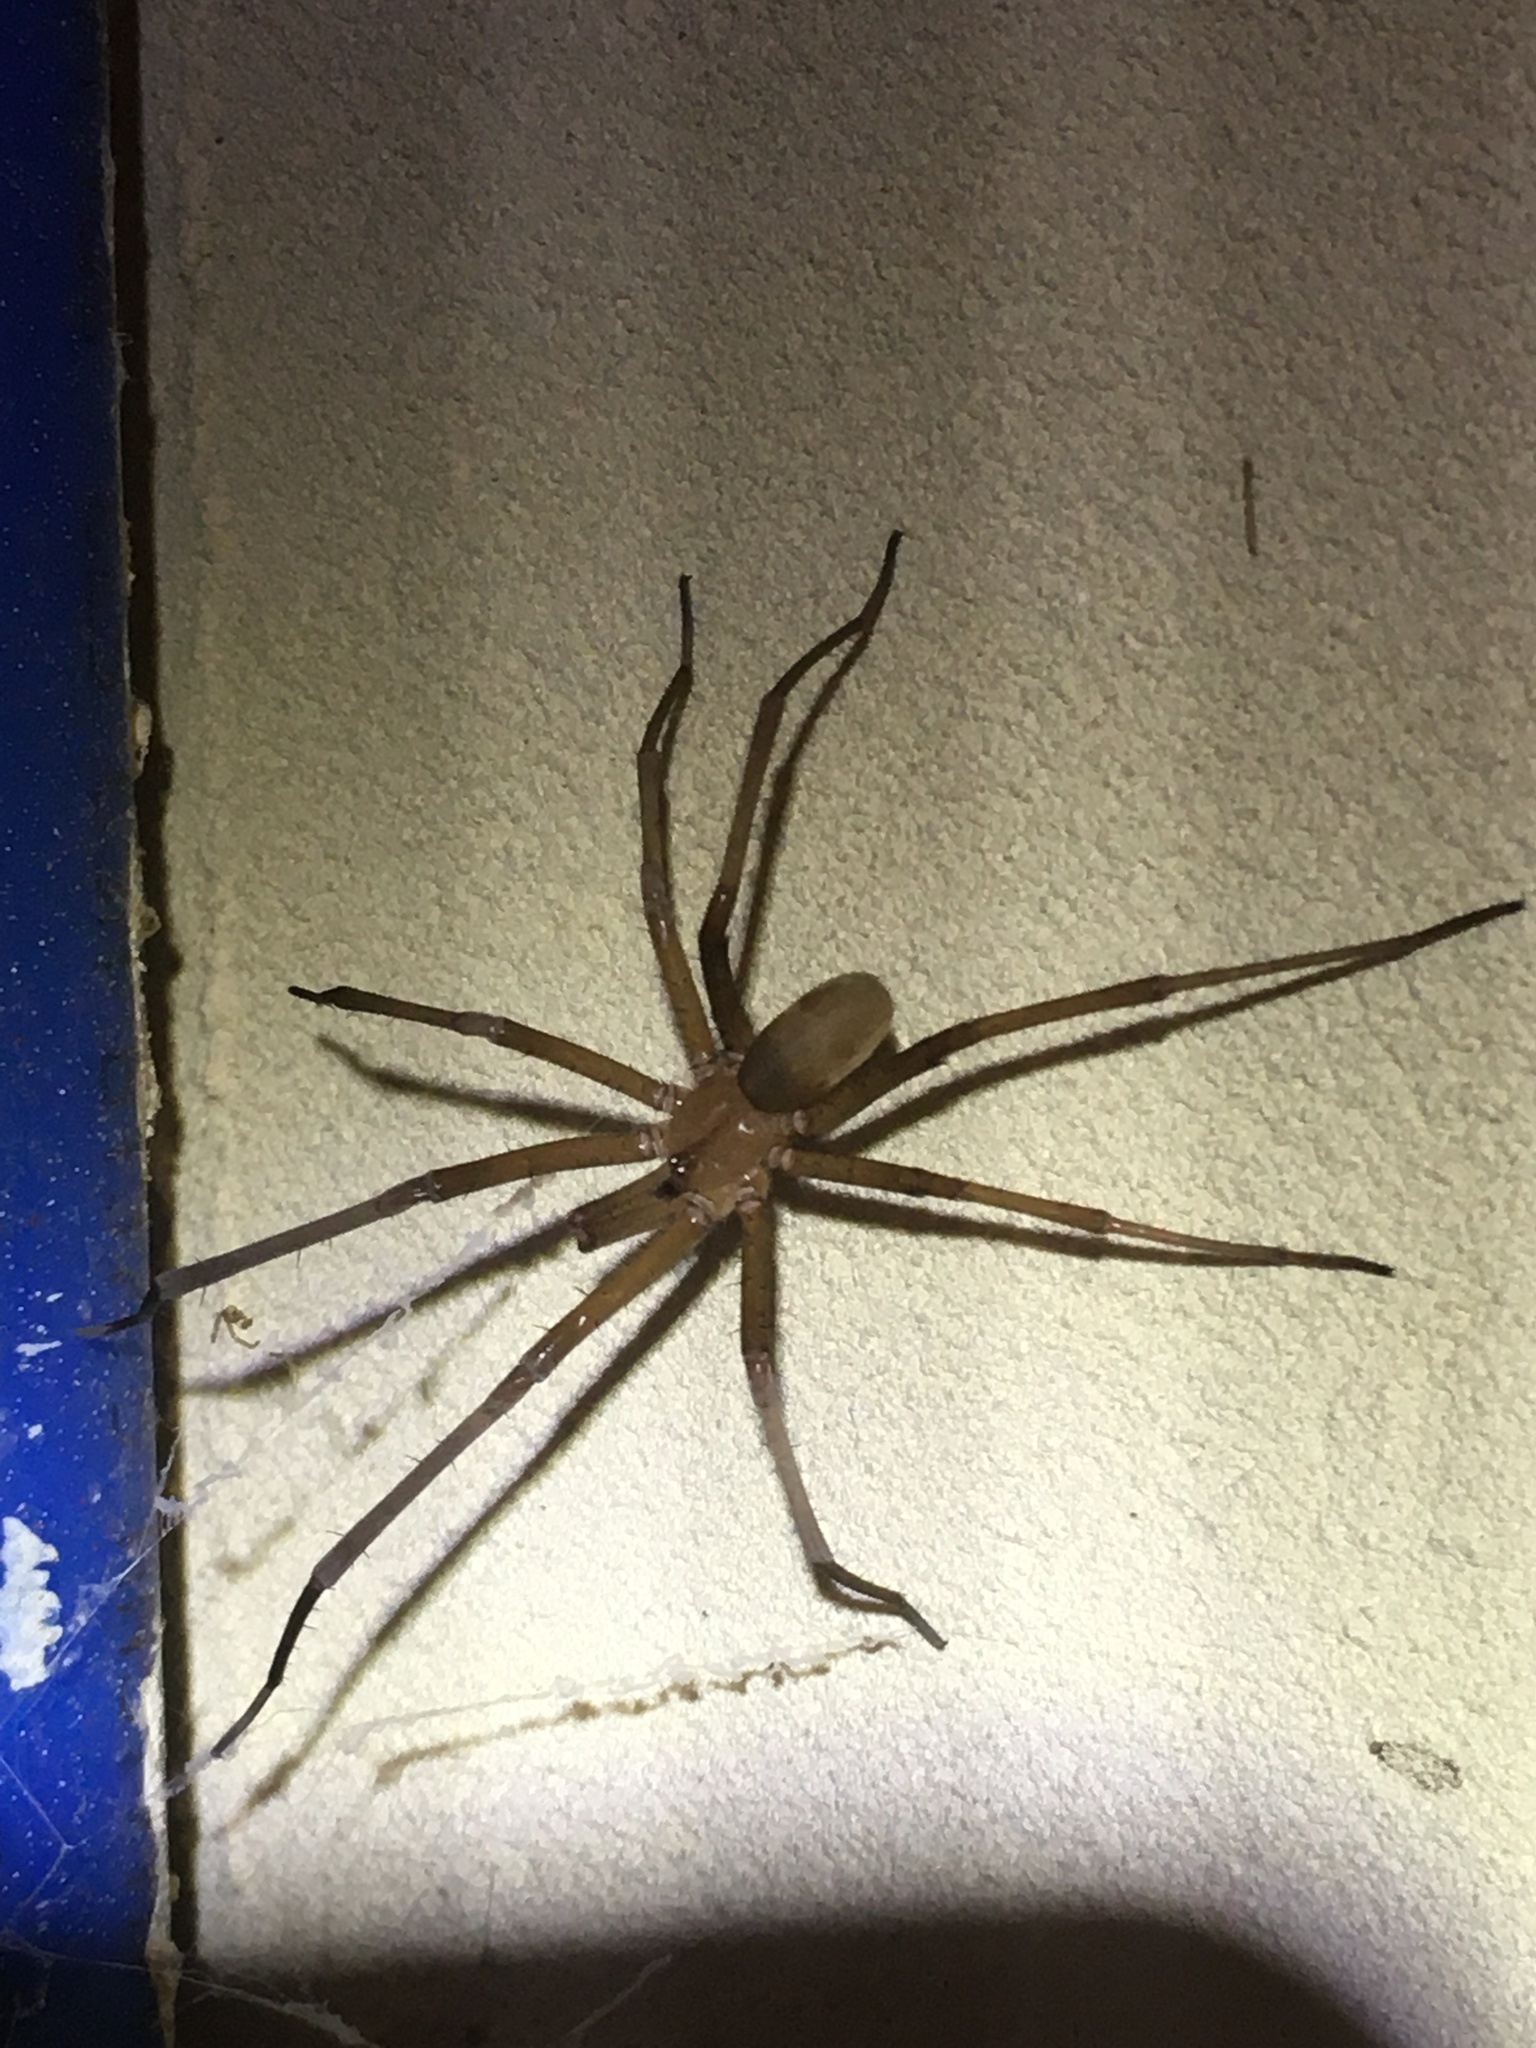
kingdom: Animalia
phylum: Arthropoda
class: Arachnida
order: Araneae
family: Filistatidae
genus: Kukulcania
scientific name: Kukulcania hibernalis
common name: Crevice weaver
